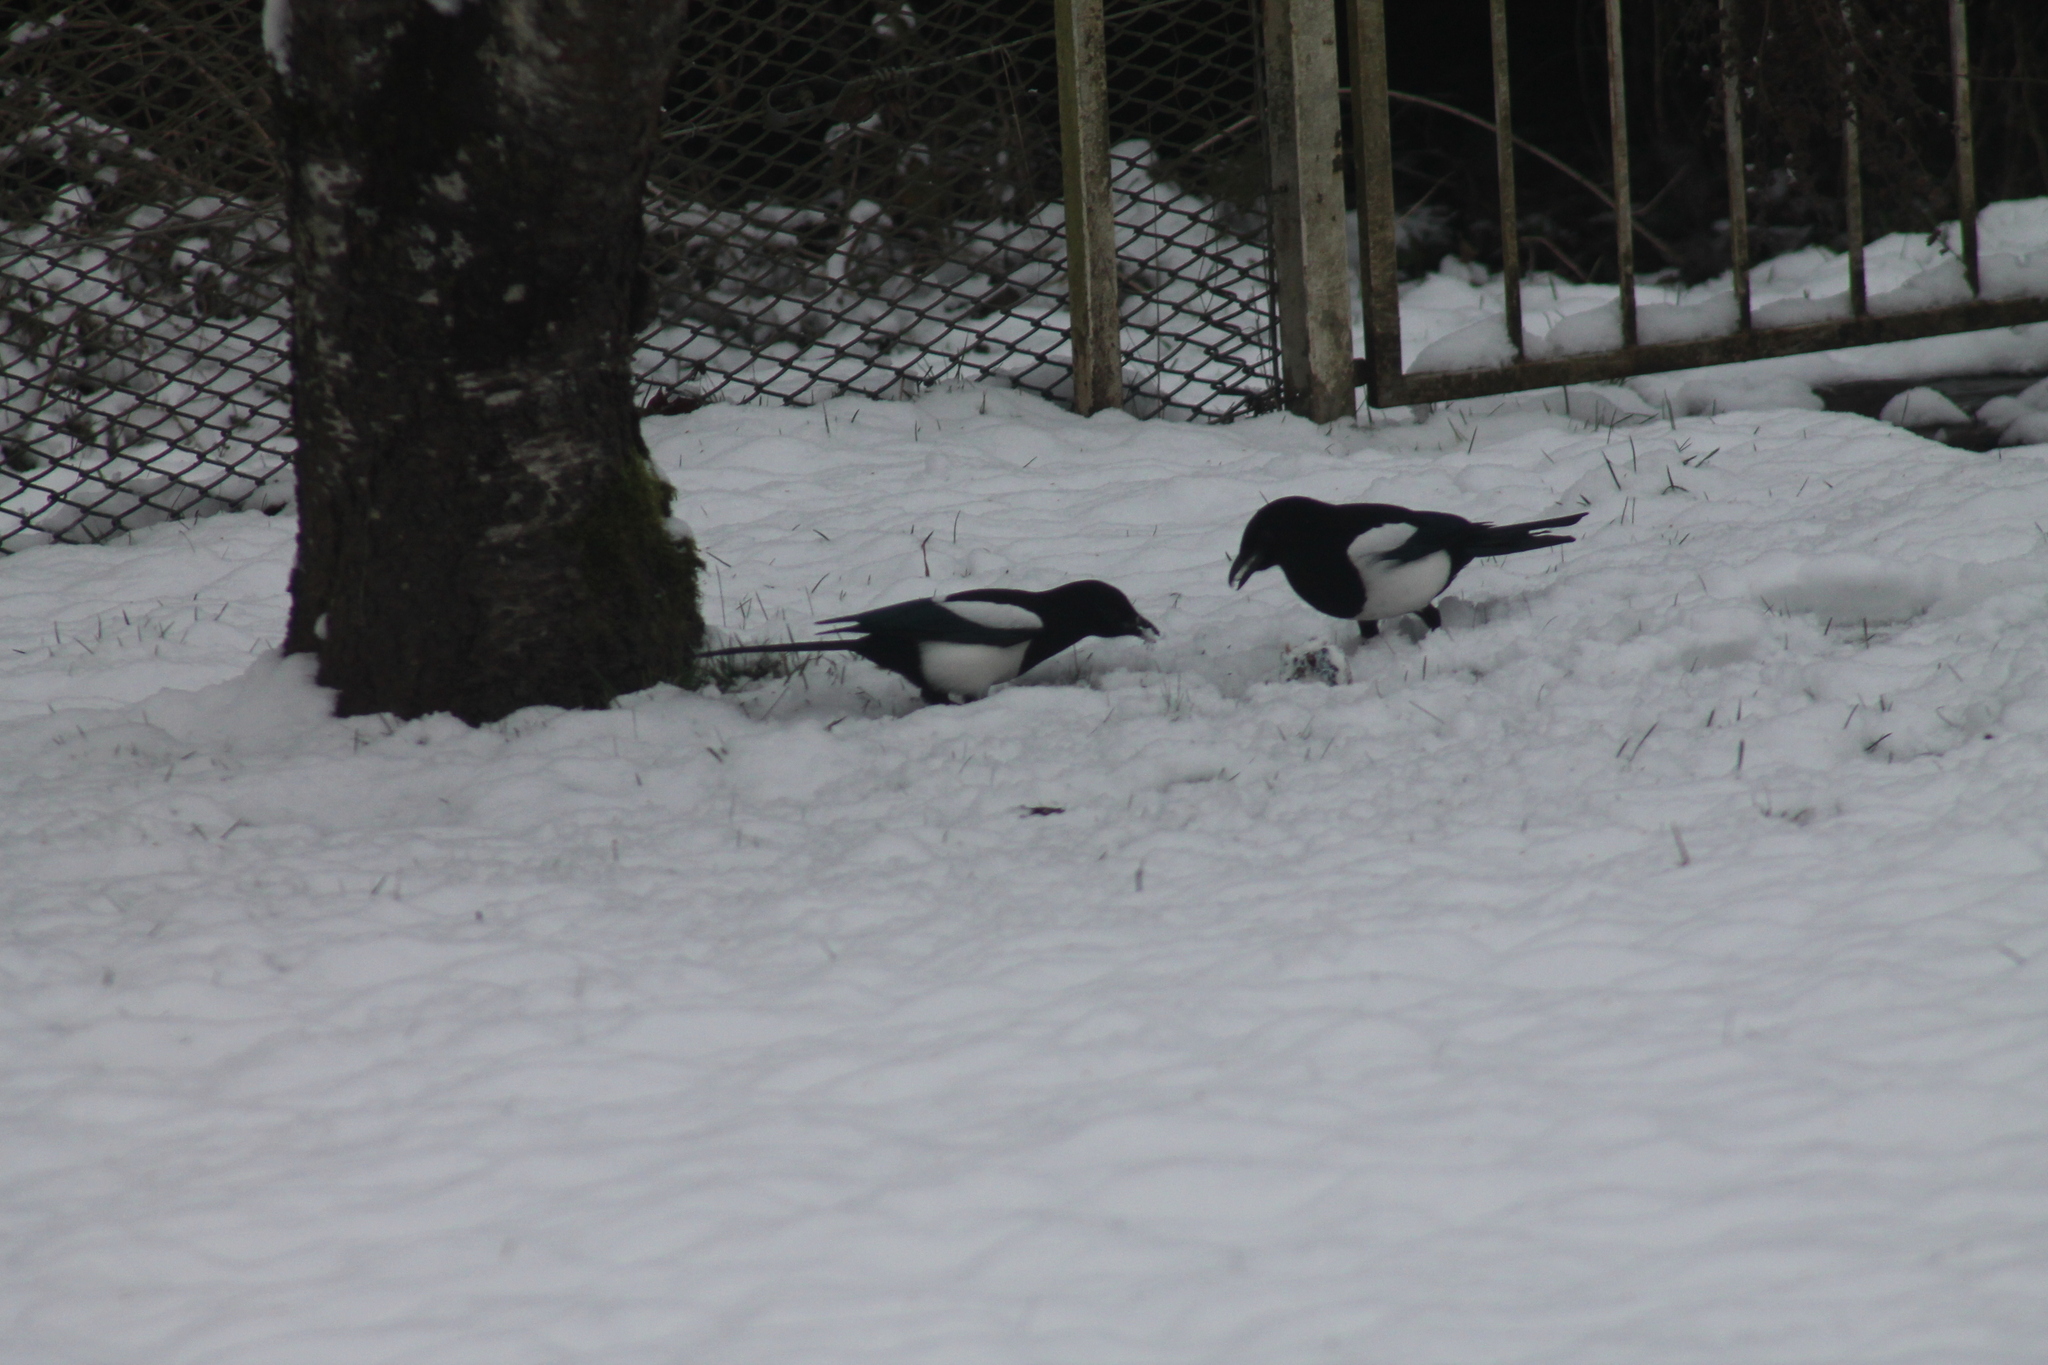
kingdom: Animalia
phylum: Chordata
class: Aves
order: Passeriformes
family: Corvidae
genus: Pica
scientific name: Pica pica
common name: Eurasian magpie
